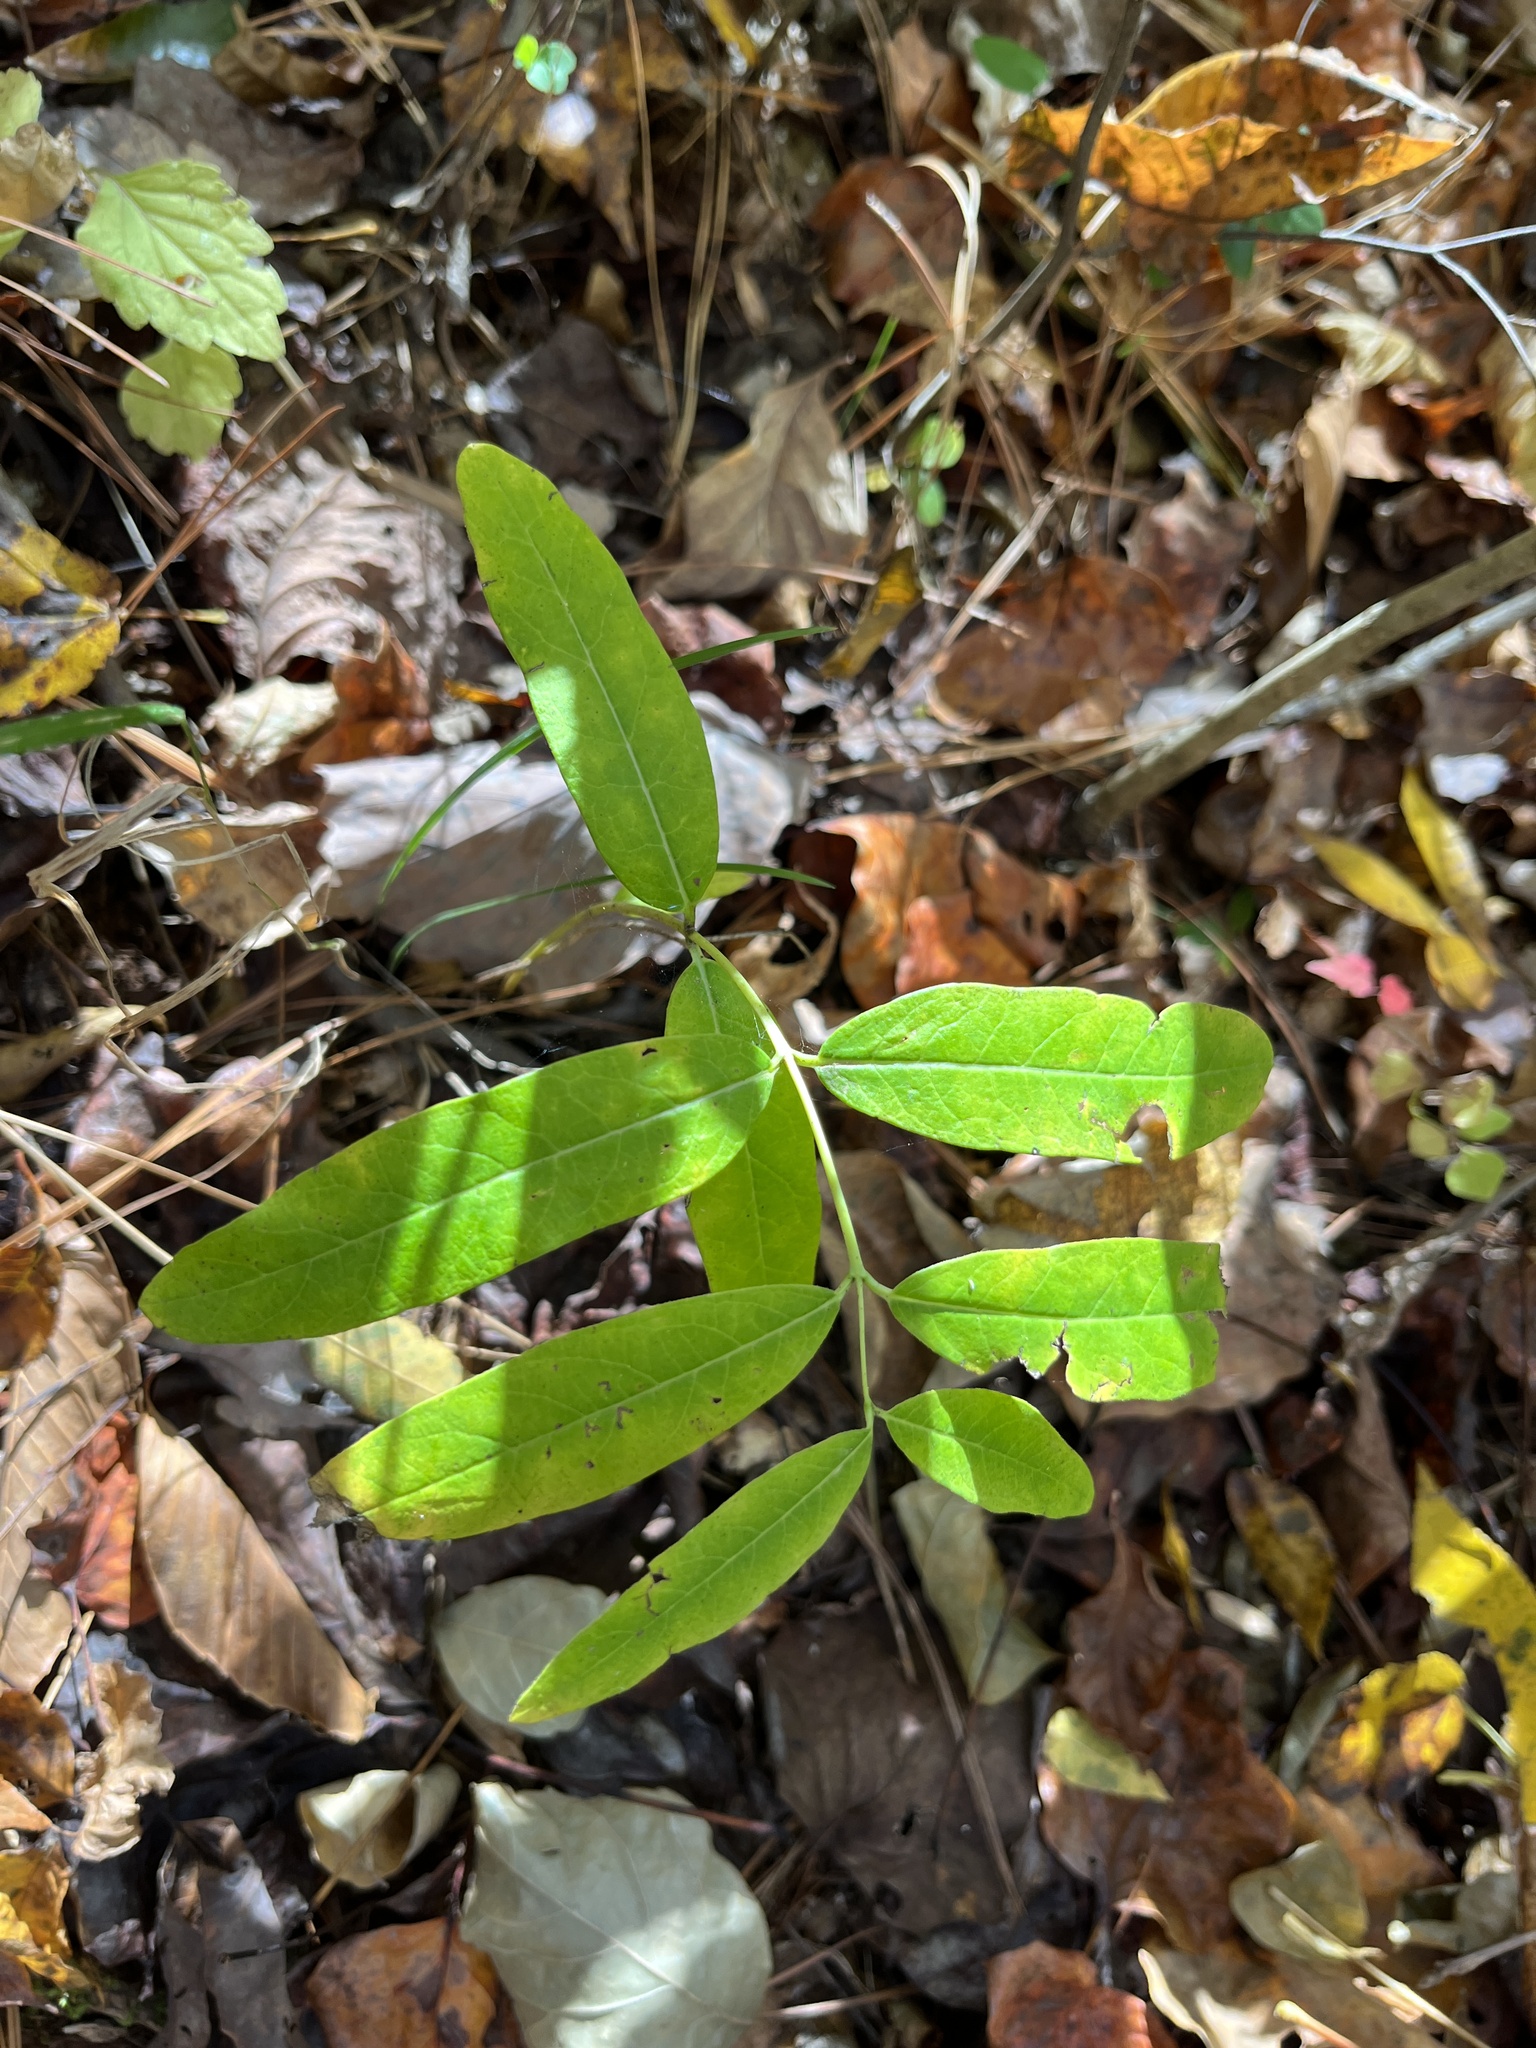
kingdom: Plantae
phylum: Tracheophyta
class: Magnoliopsida
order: Gentianales
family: Apocynaceae
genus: Apocynum
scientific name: Apocynum cannabinum
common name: Hemp dogbane
